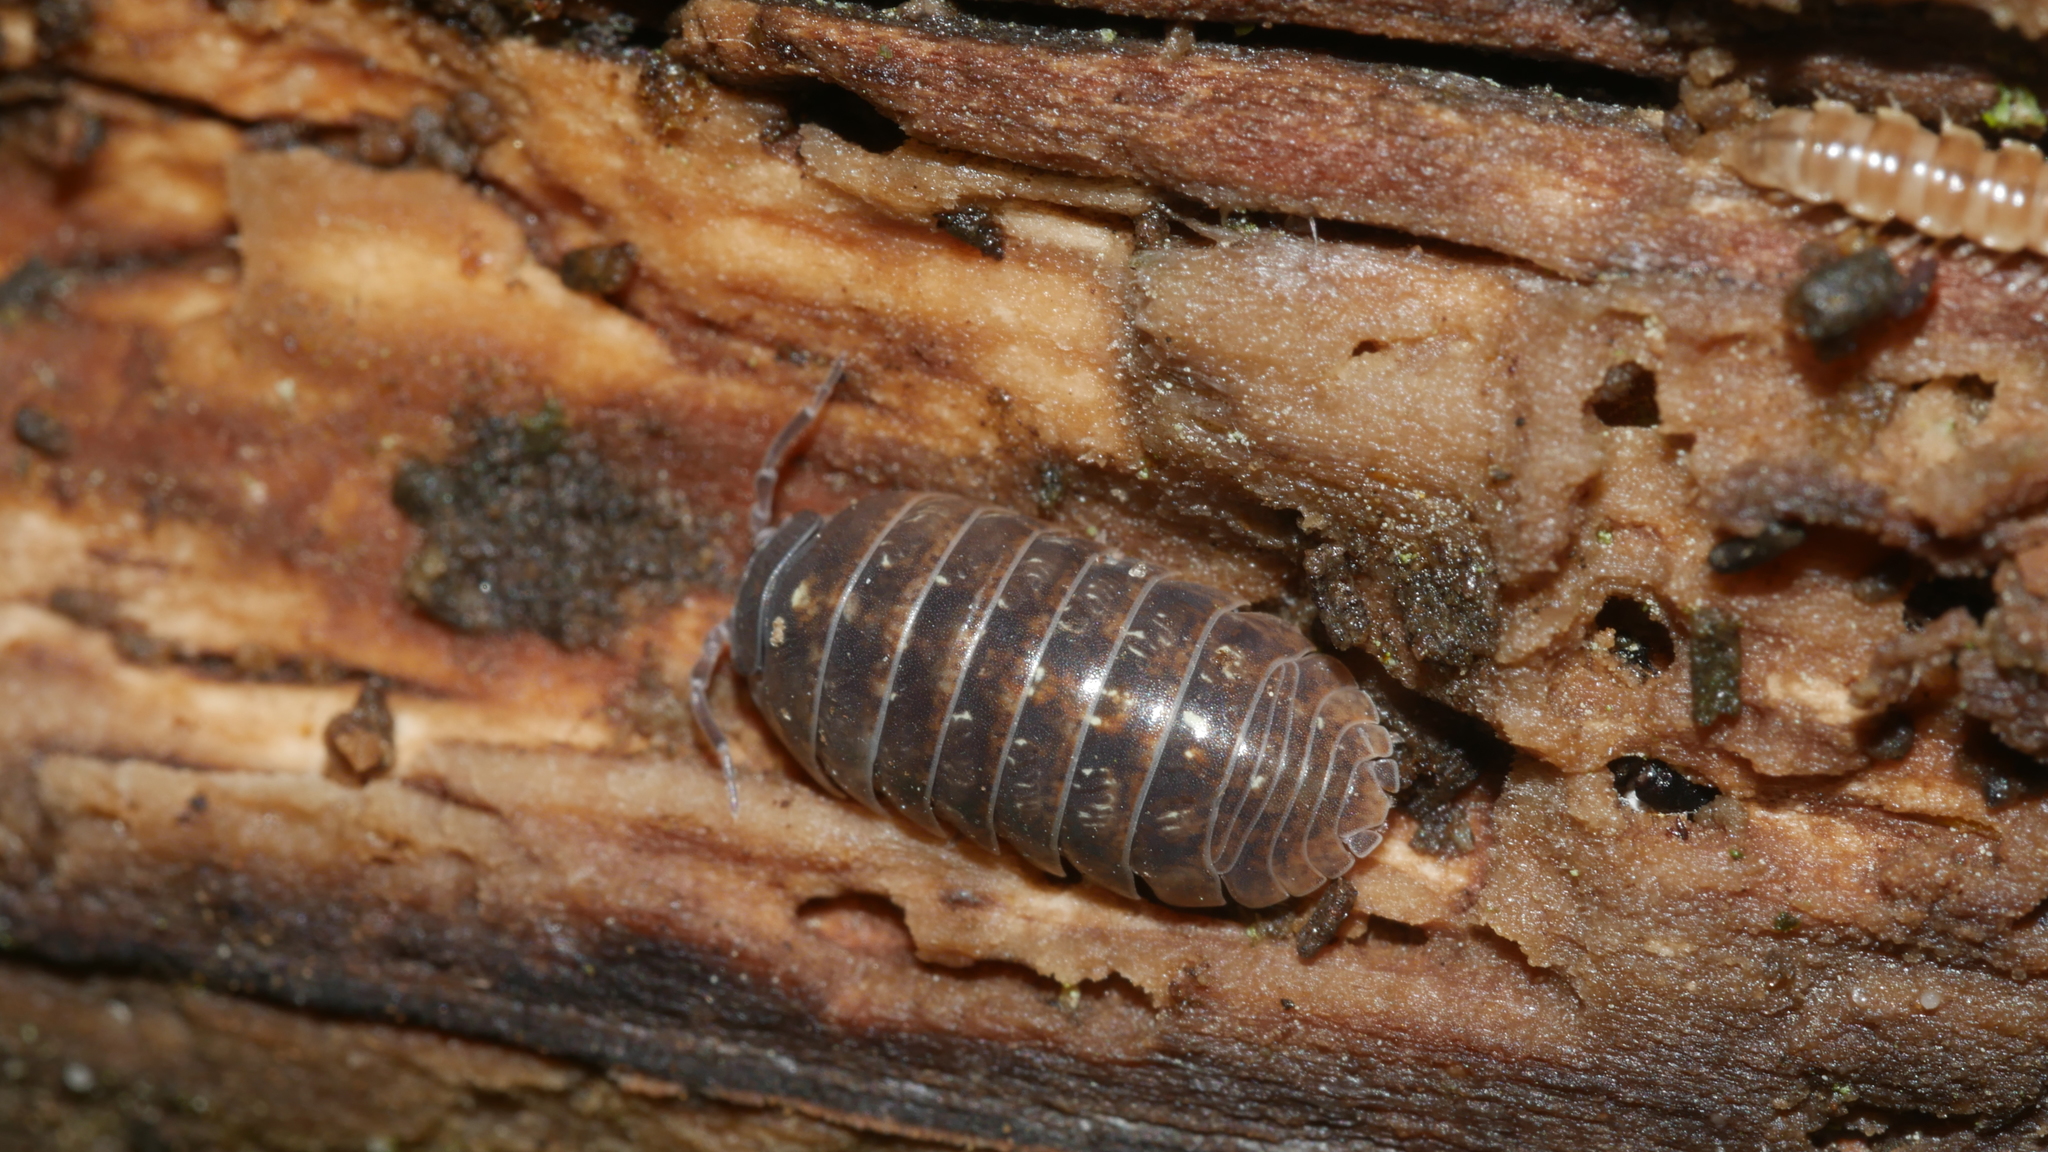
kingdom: Animalia
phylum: Arthropoda
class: Malacostraca
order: Isopoda
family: Armadillidiidae
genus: Armadillidium
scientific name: Armadillidium vulgare
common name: Common pill woodlouse
